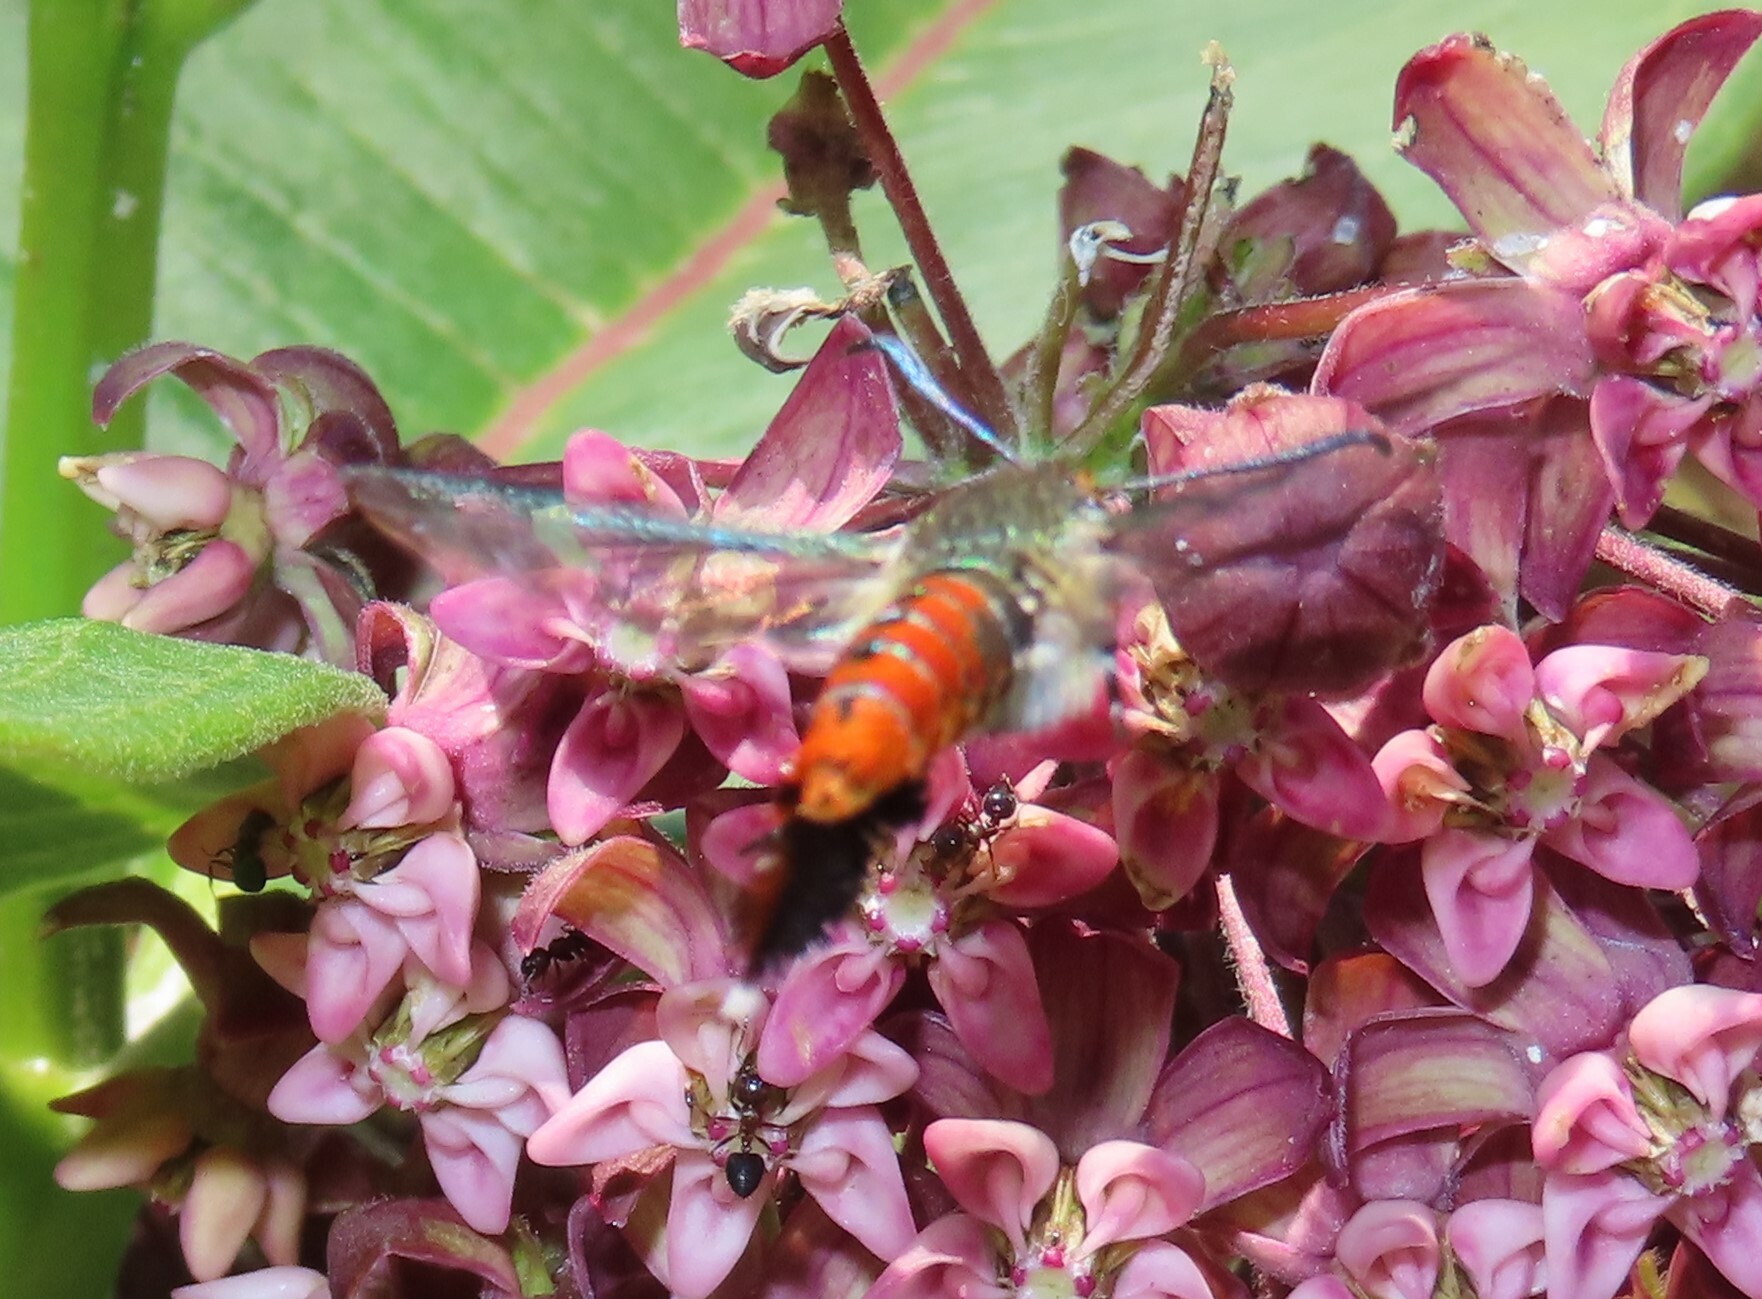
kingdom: Animalia
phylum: Arthropoda
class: Insecta
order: Lepidoptera
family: Sesiidae
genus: Eichlinia
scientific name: Eichlinia cucurbitae
